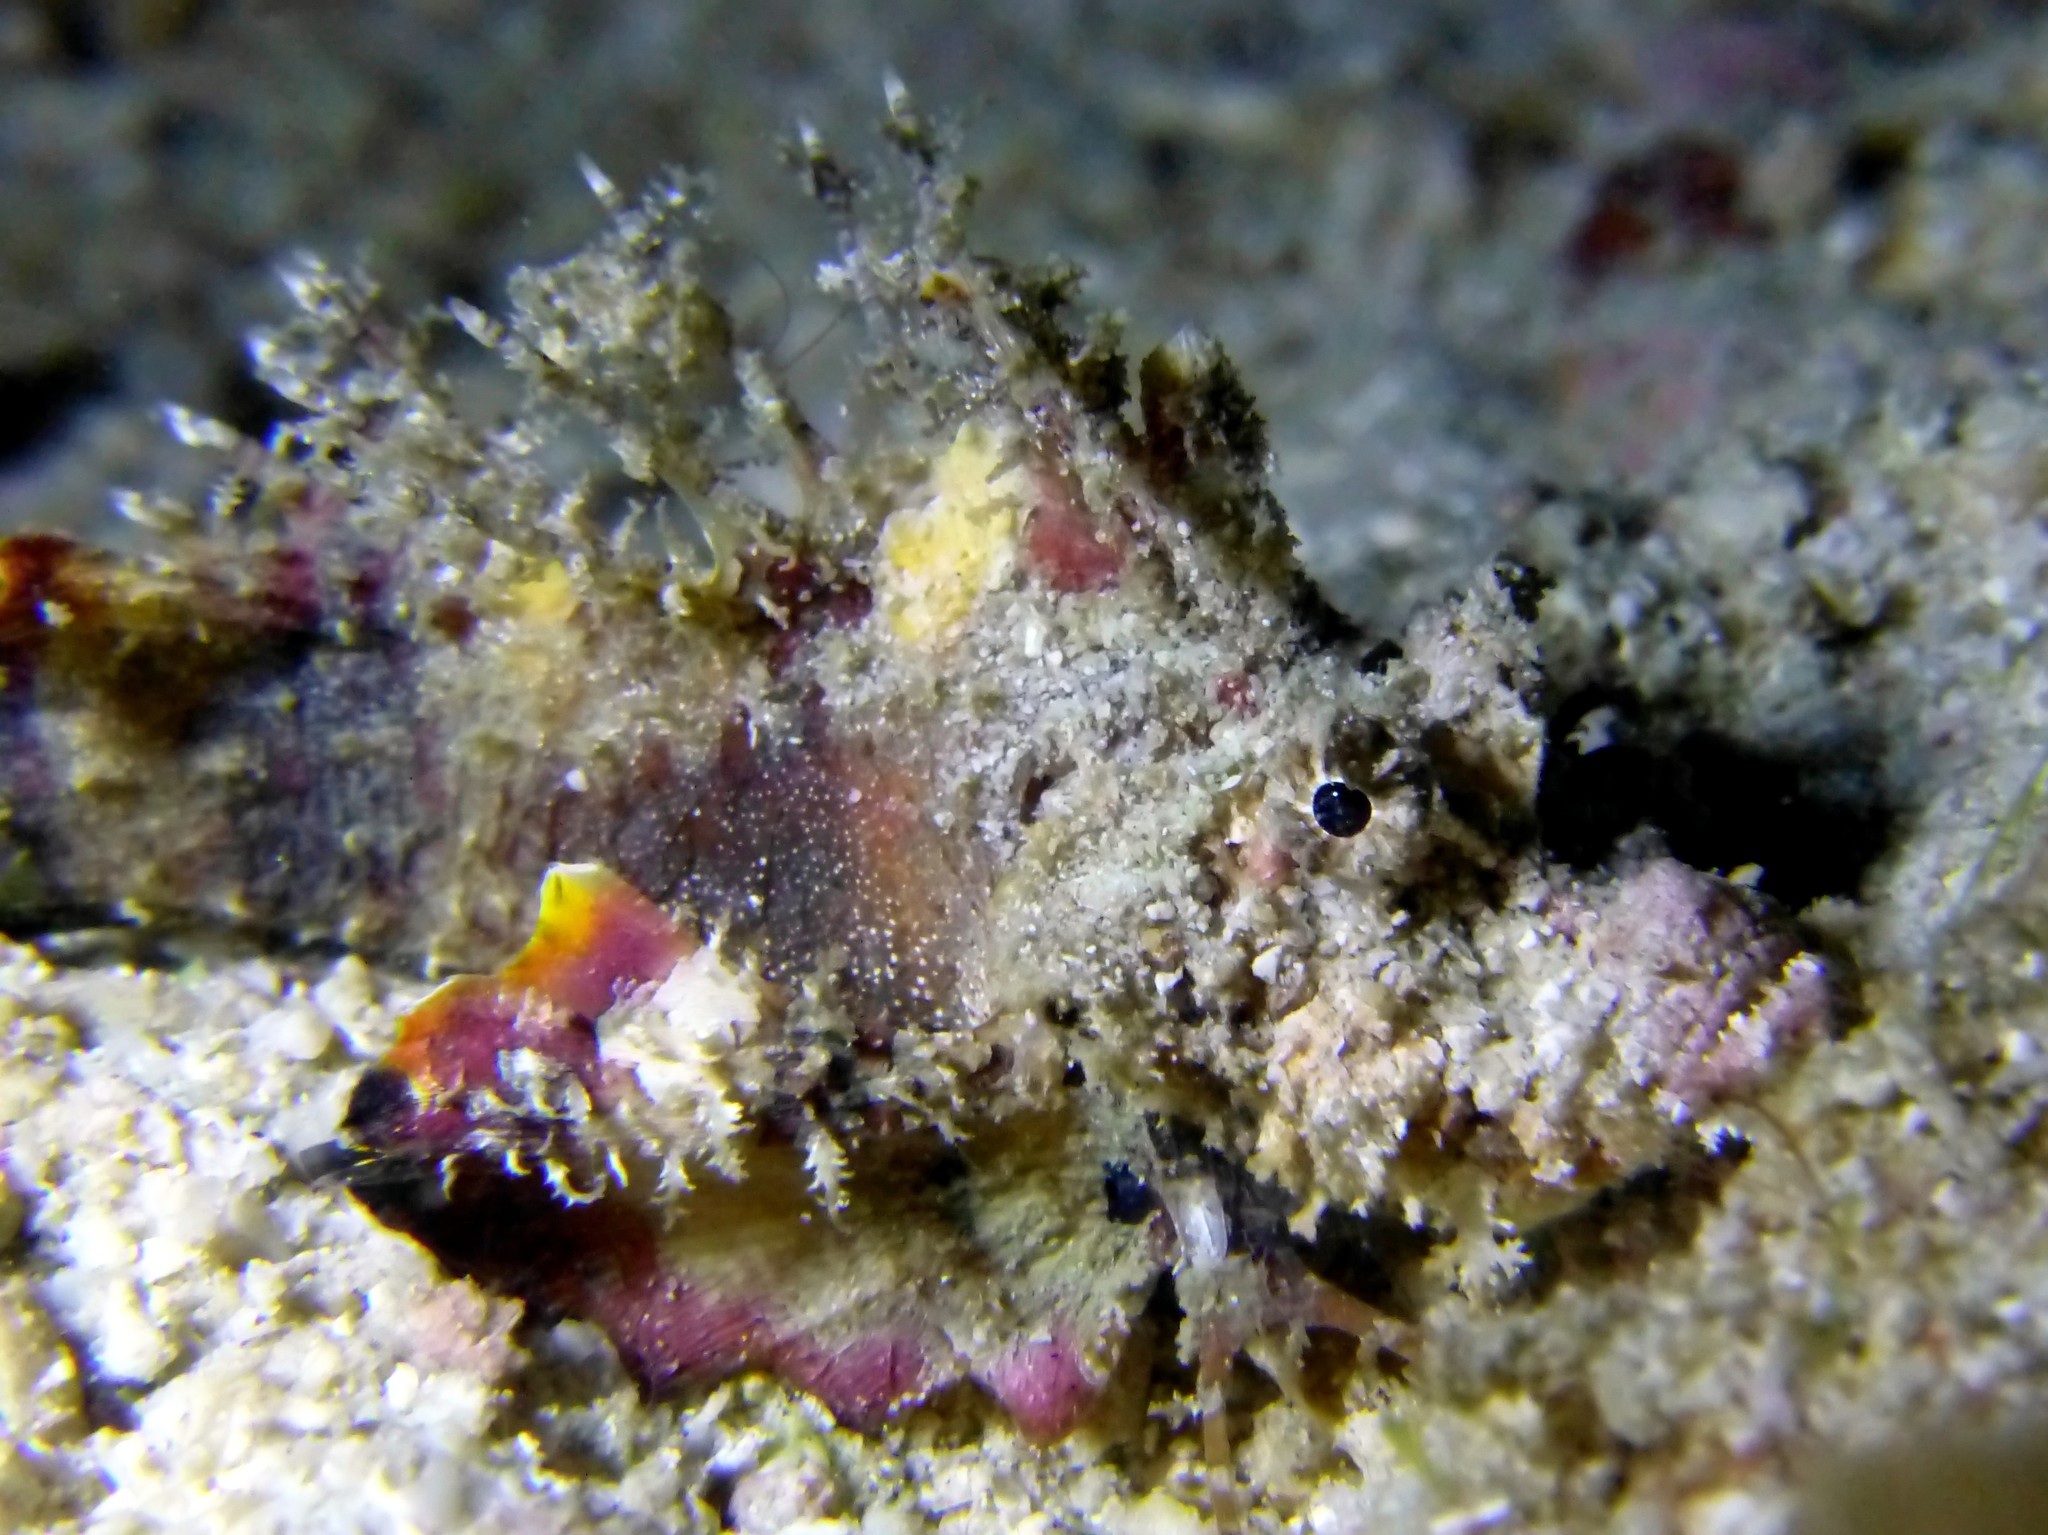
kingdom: Animalia
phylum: Chordata
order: Scorpaeniformes
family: Synanceiidae
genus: Inimicus
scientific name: Inimicus didactylus
